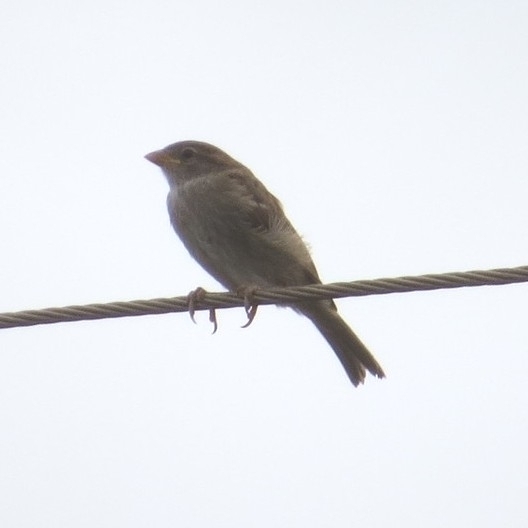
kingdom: Animalia
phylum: Chordata
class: Aves
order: Passeriformes
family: Passeridae
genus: Passer
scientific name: Passer domesticus
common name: House sparrow
